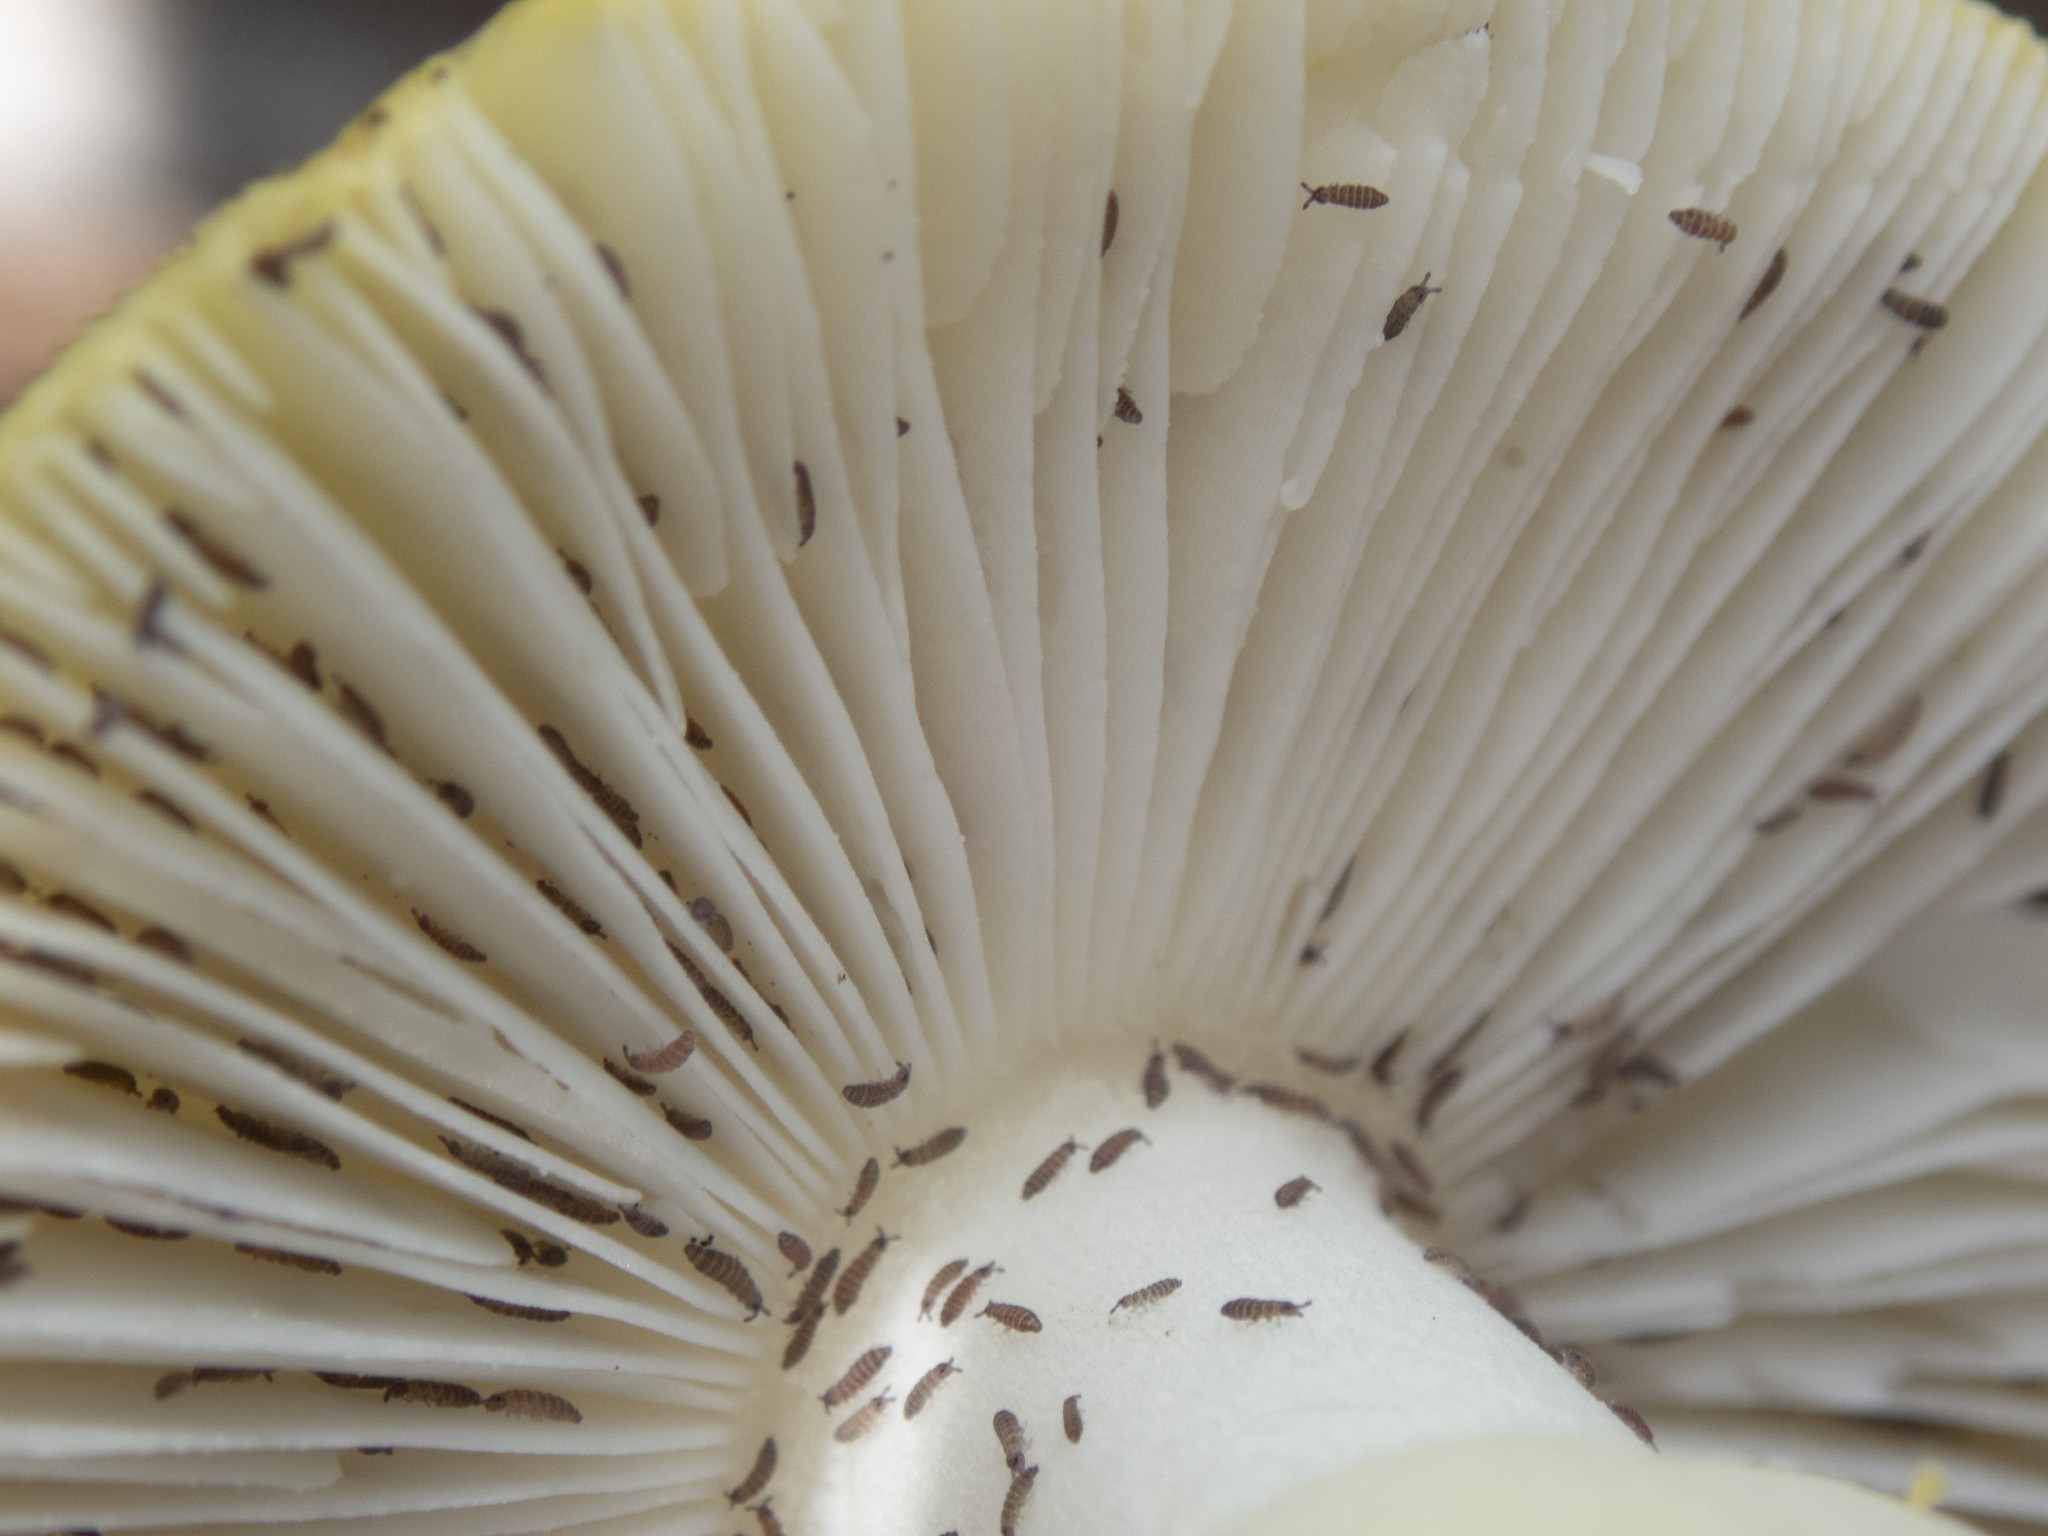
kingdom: Fungi
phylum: Basidiomycota
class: Agaricomycetes
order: Agaricales
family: Amanitaceae
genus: Amanita
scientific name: Amanita augusta
